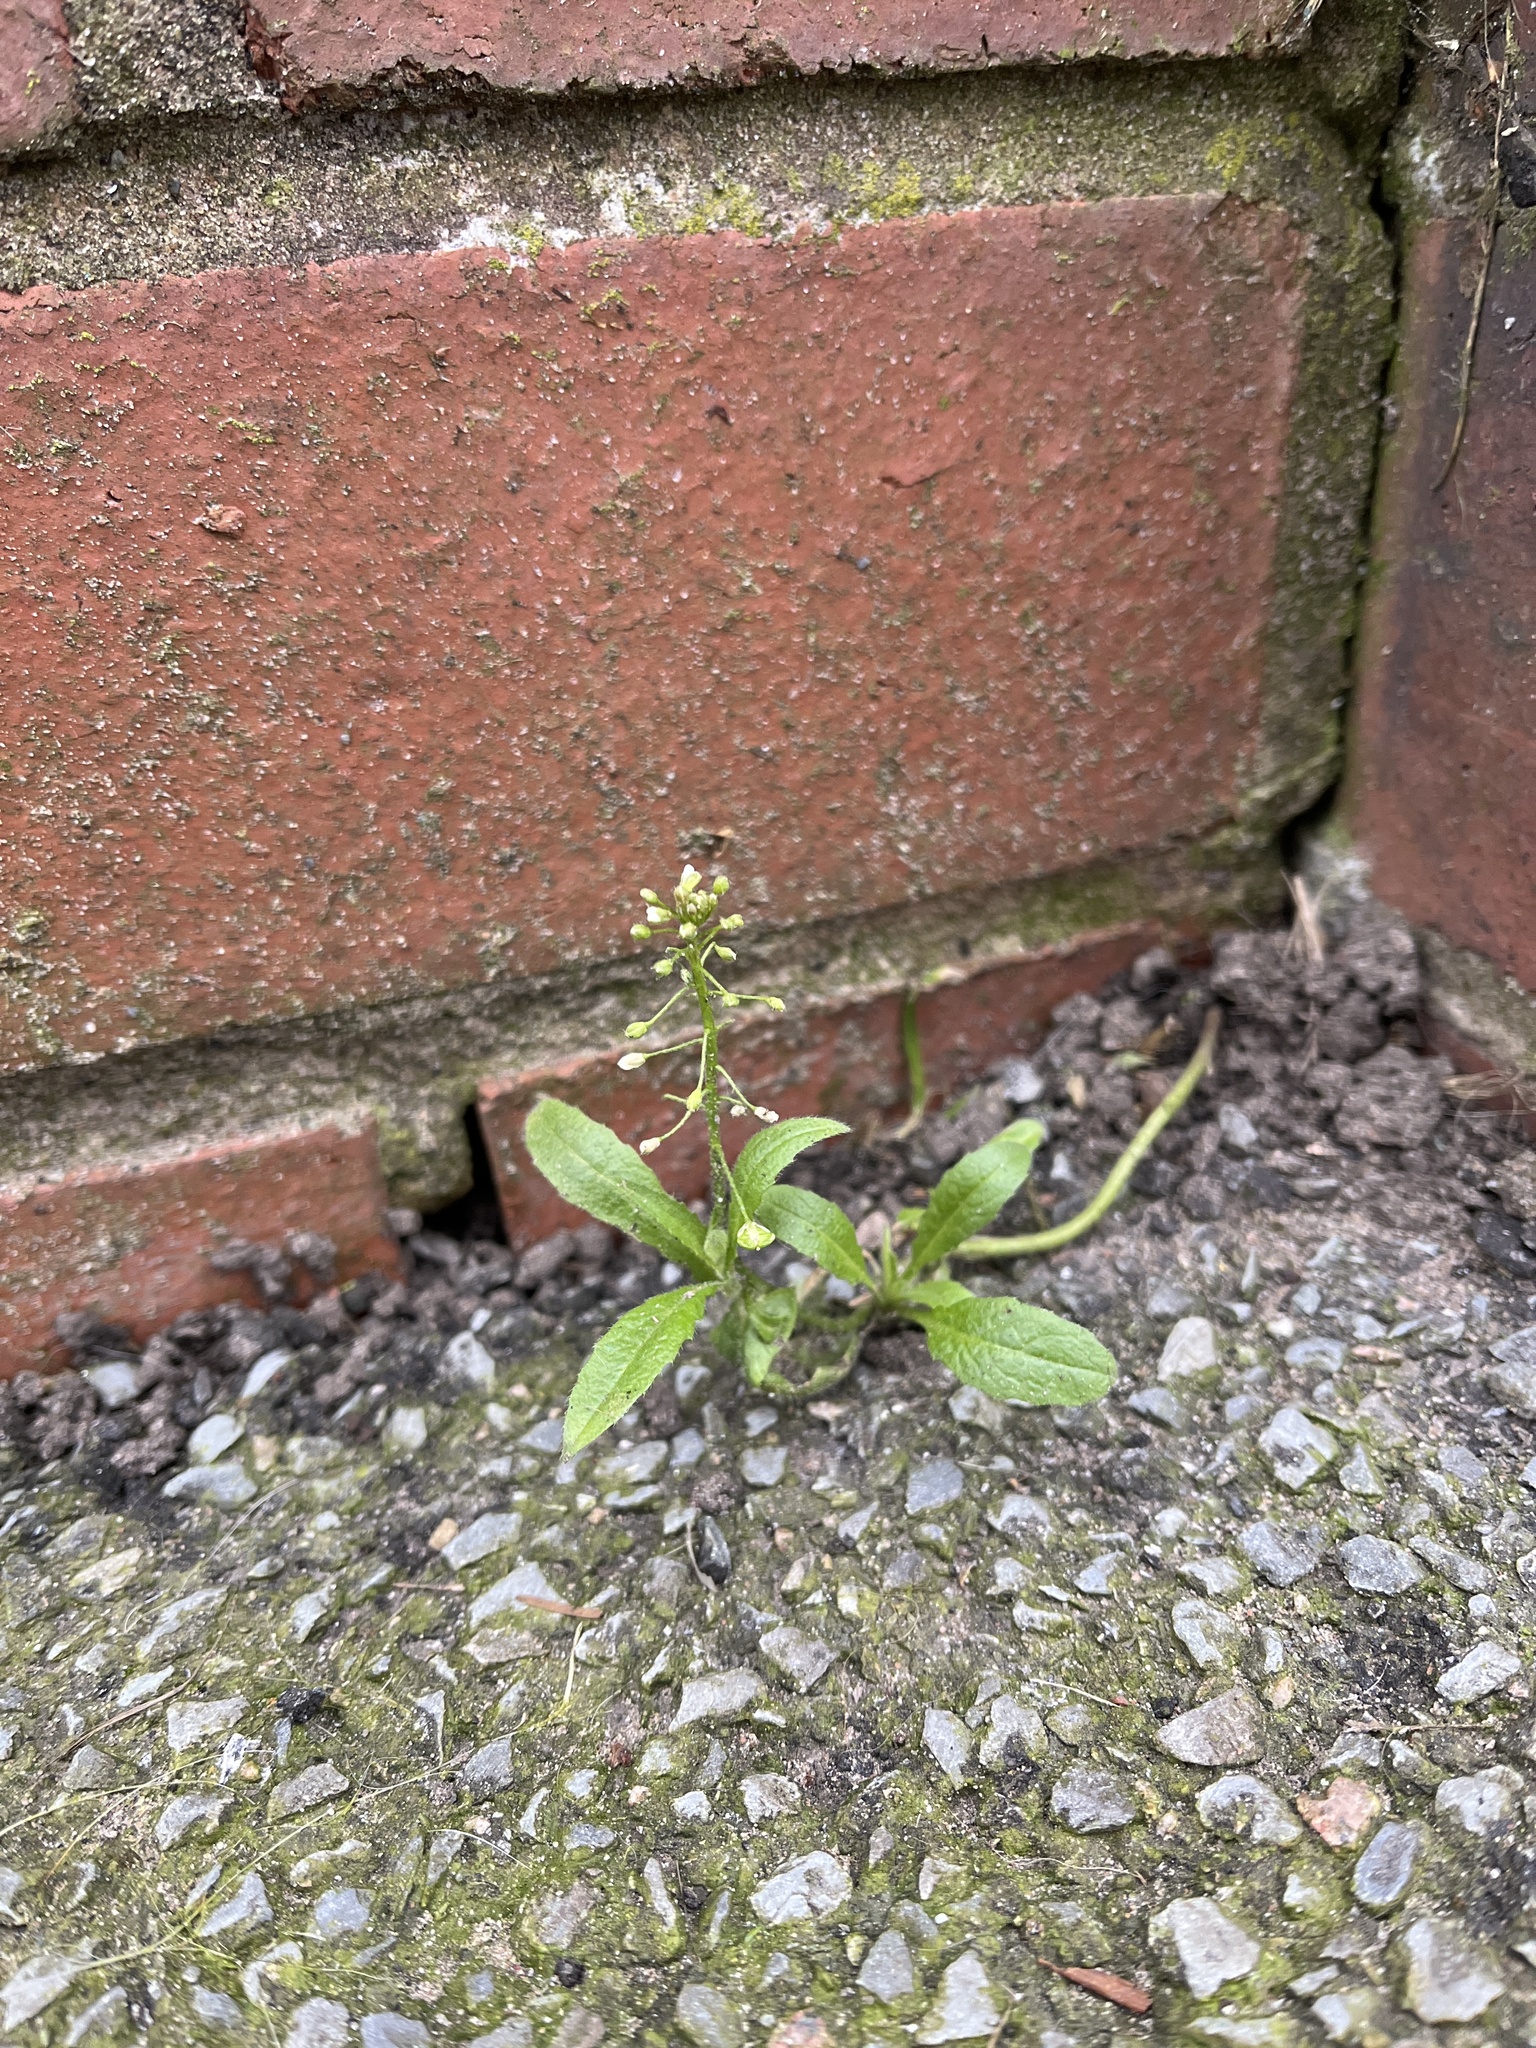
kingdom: Plantae
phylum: Tracheophyta
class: Magnoliopsida
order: Brassicales
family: Brassicaceae
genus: Capsella
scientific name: Capsella bursa-pastoris
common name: Shepherd's purse
